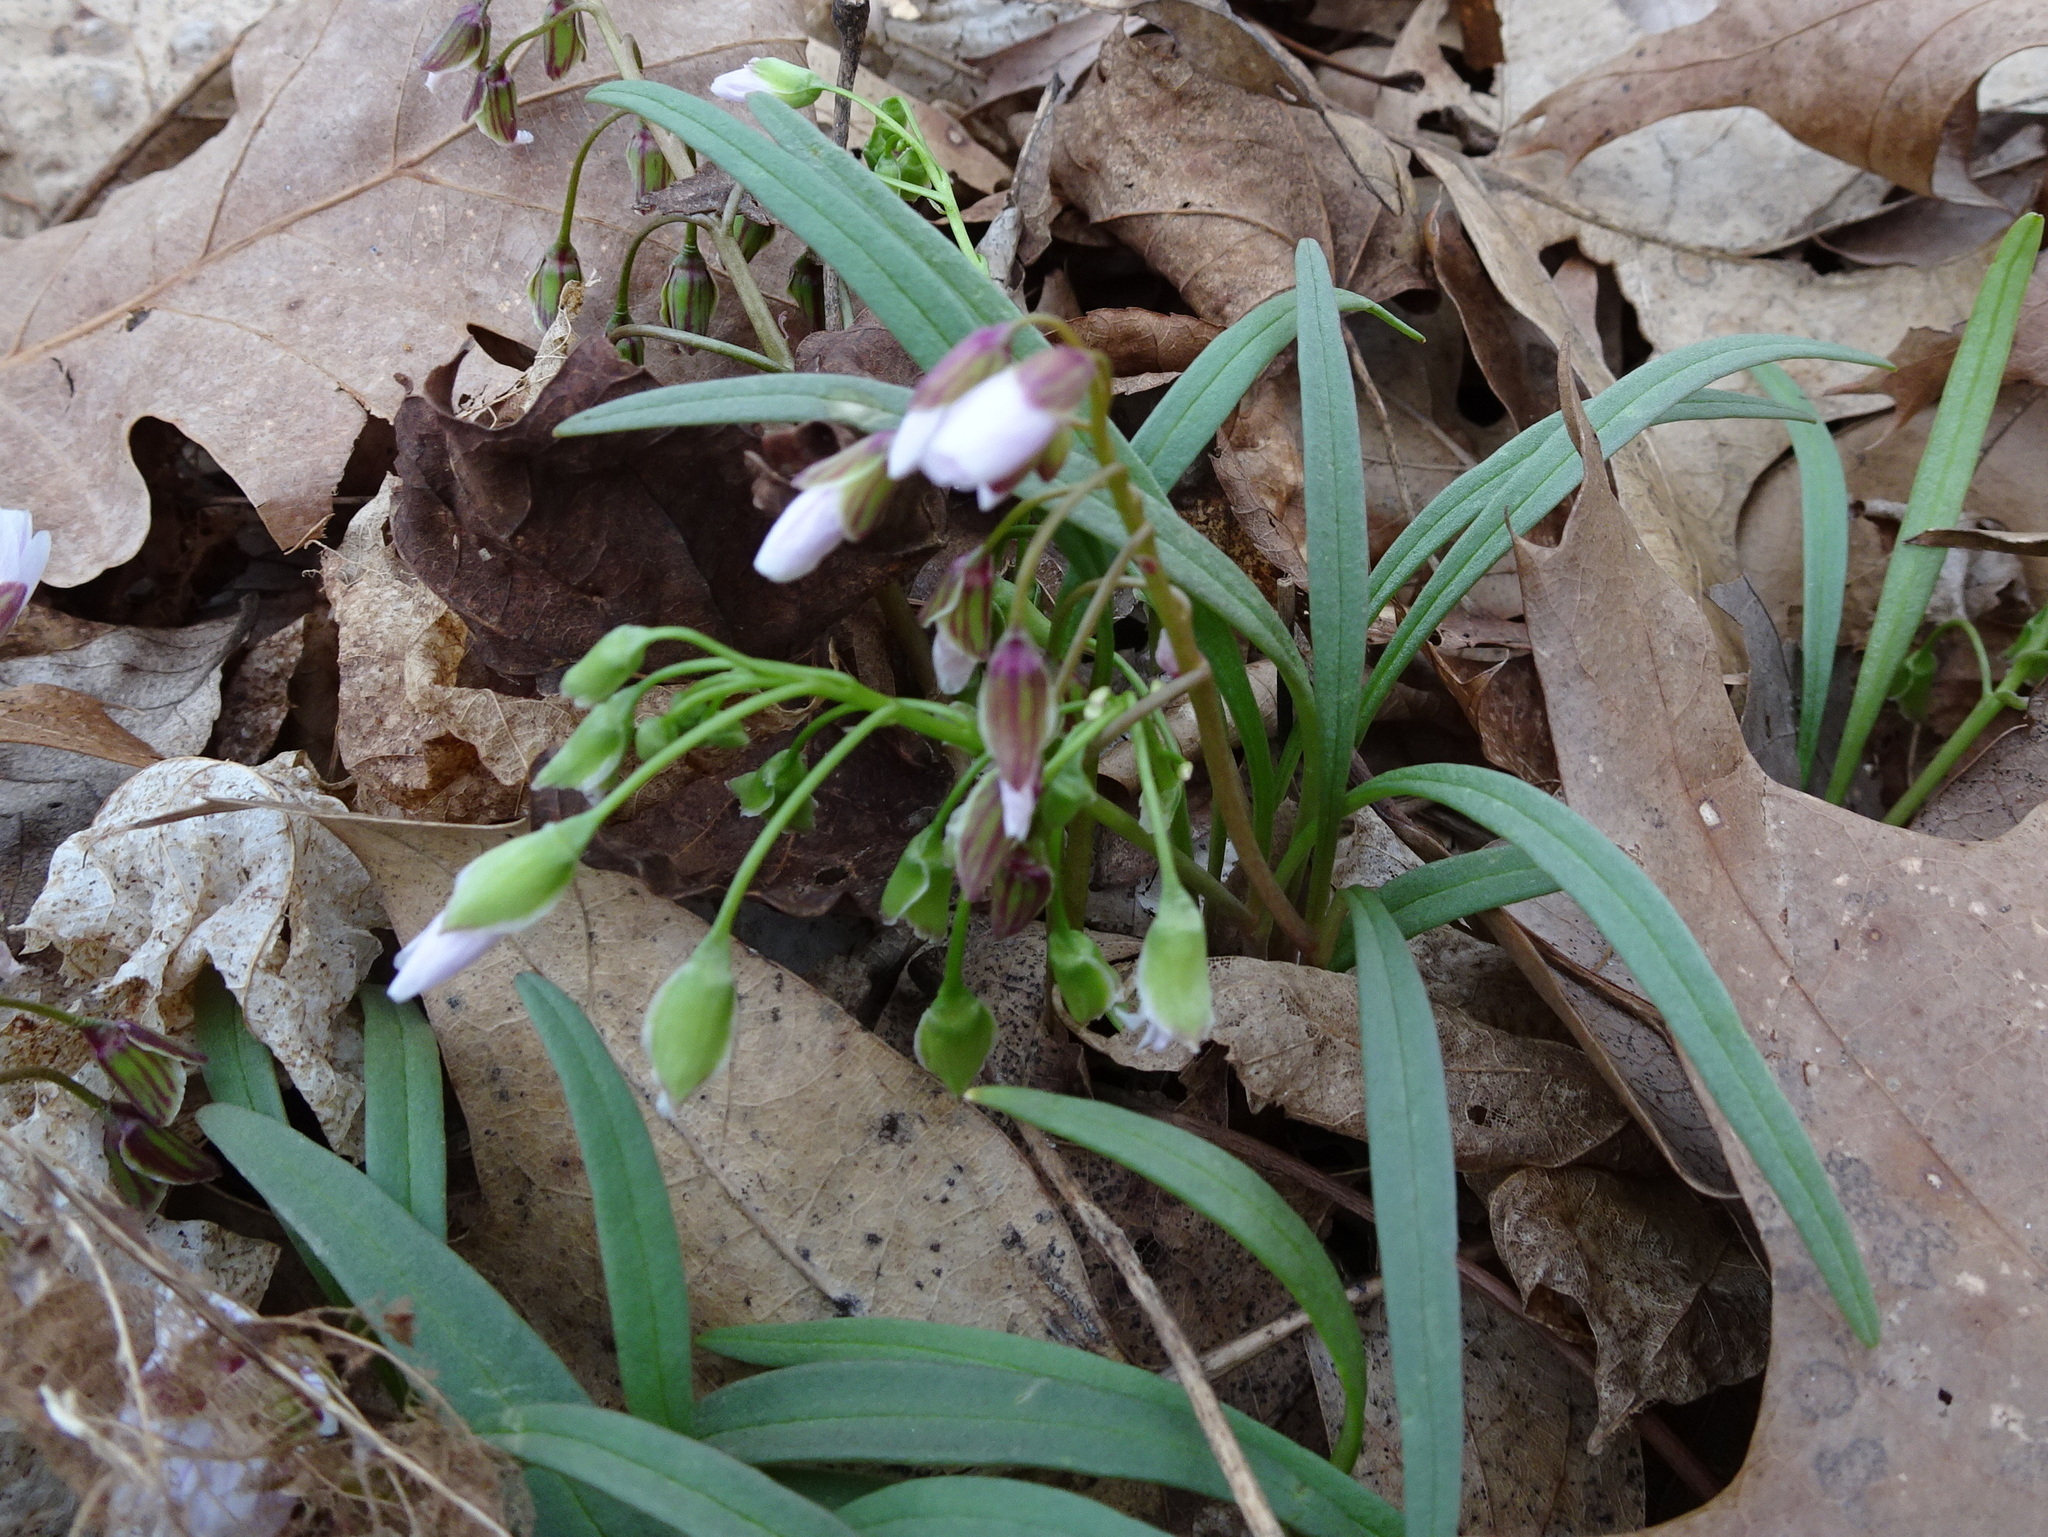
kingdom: Plantae
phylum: Tracheophyta
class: Magnoliopsida
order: Caryophyllales
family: Montiaceae
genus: Claytonia
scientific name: Claytonia virginica
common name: Virginia springbeauty
